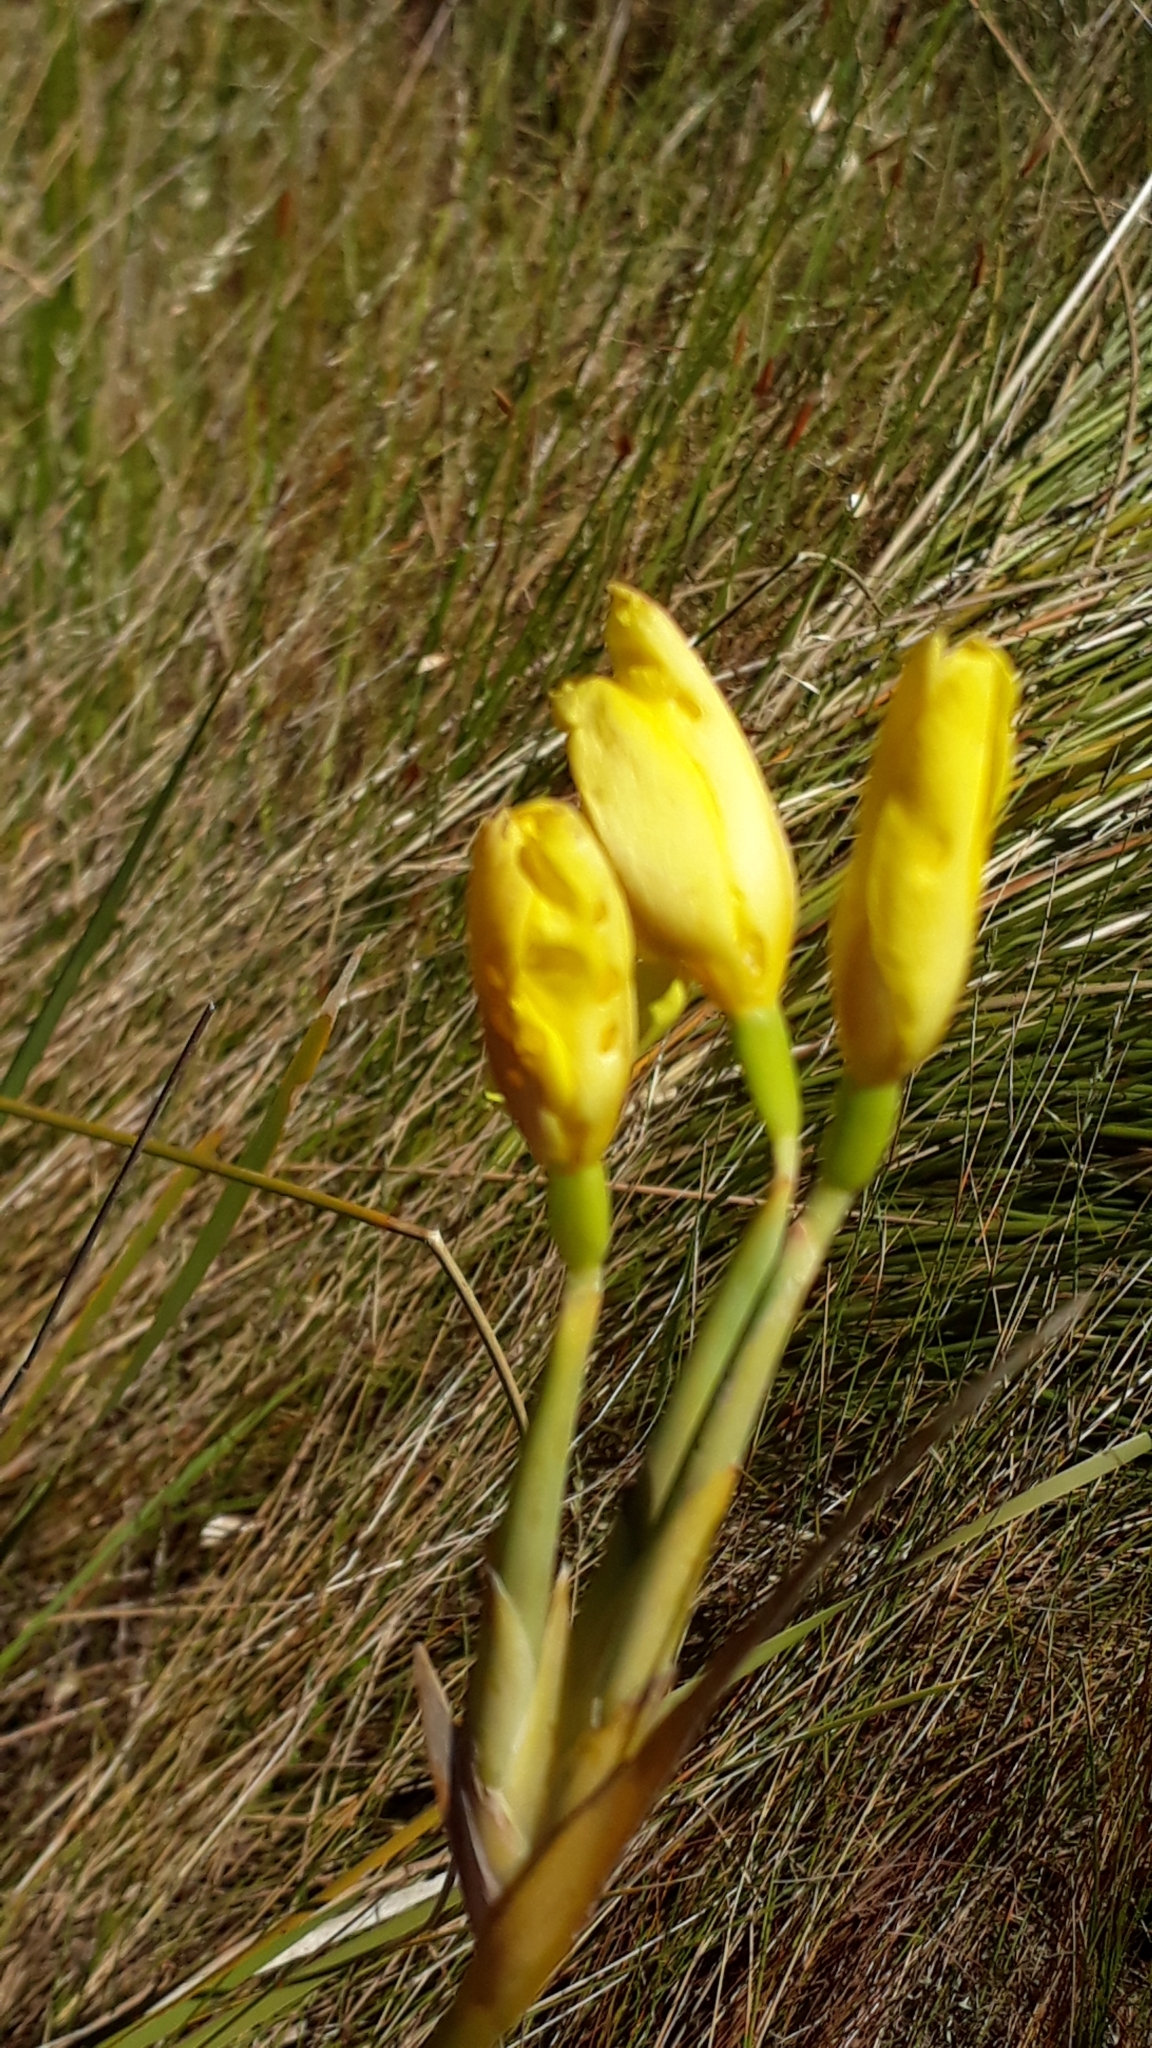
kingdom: Plantae
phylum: Tracheophyta
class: Liliopsida
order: Asparagales
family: Iridaceae
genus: Bobartia
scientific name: Bobartia gladiata
